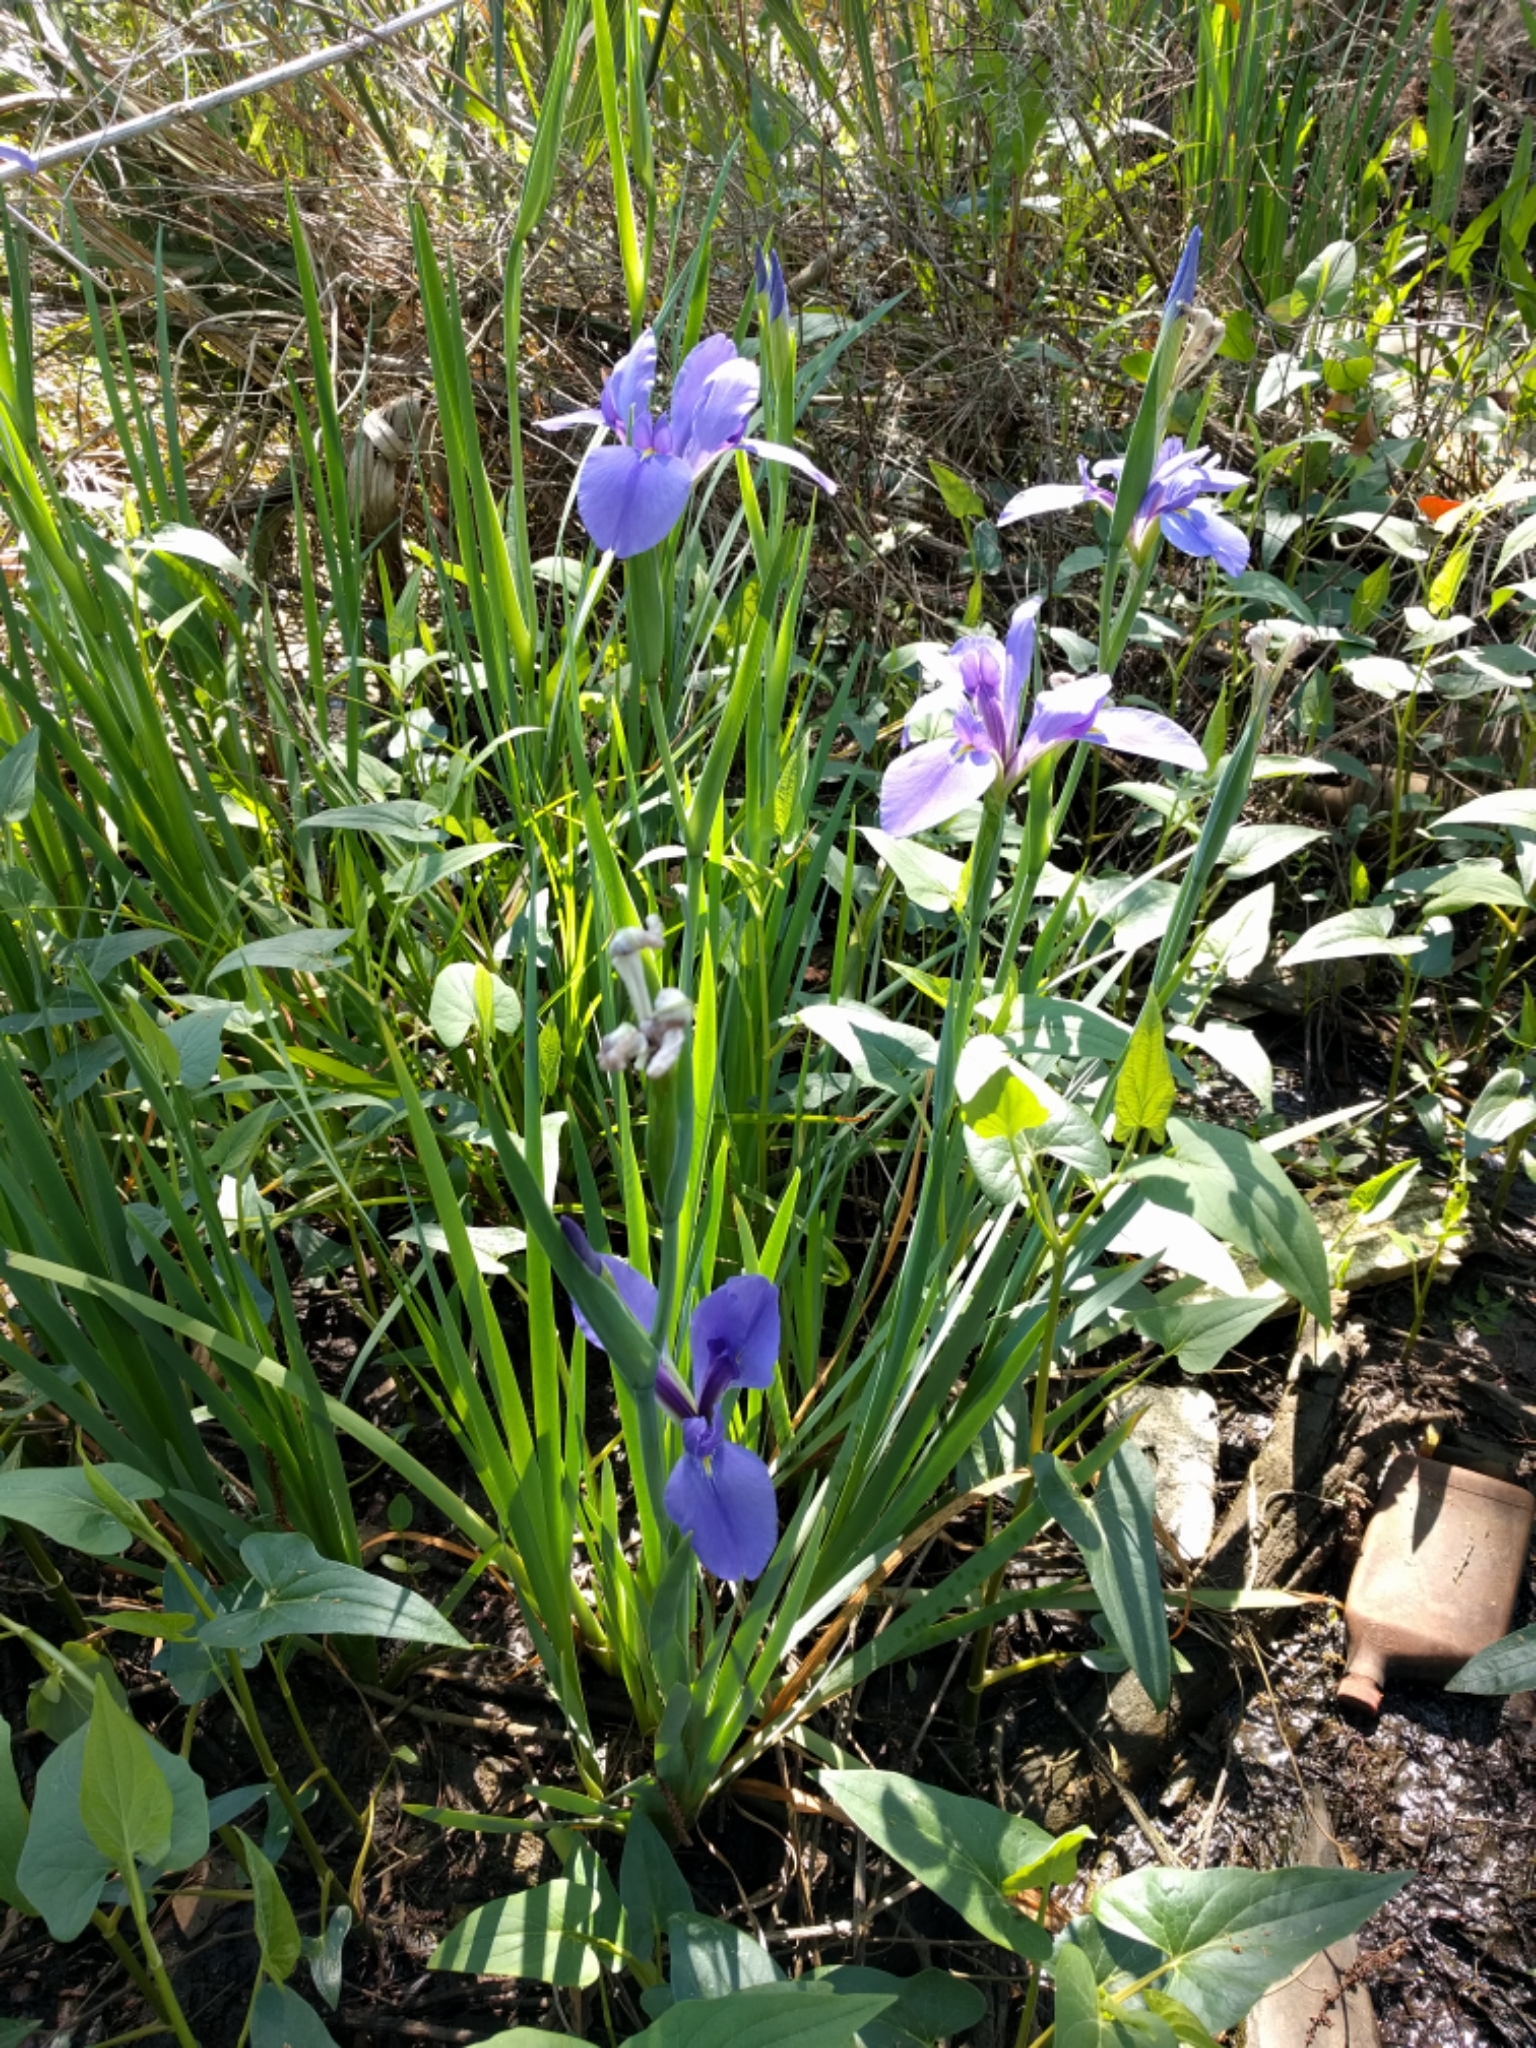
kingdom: Plantae
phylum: Tracheophyta
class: Liliopsida
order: Asparagales
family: Iridaceae
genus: Iris
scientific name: Iris giganticaerulea
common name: Giant blue iris
